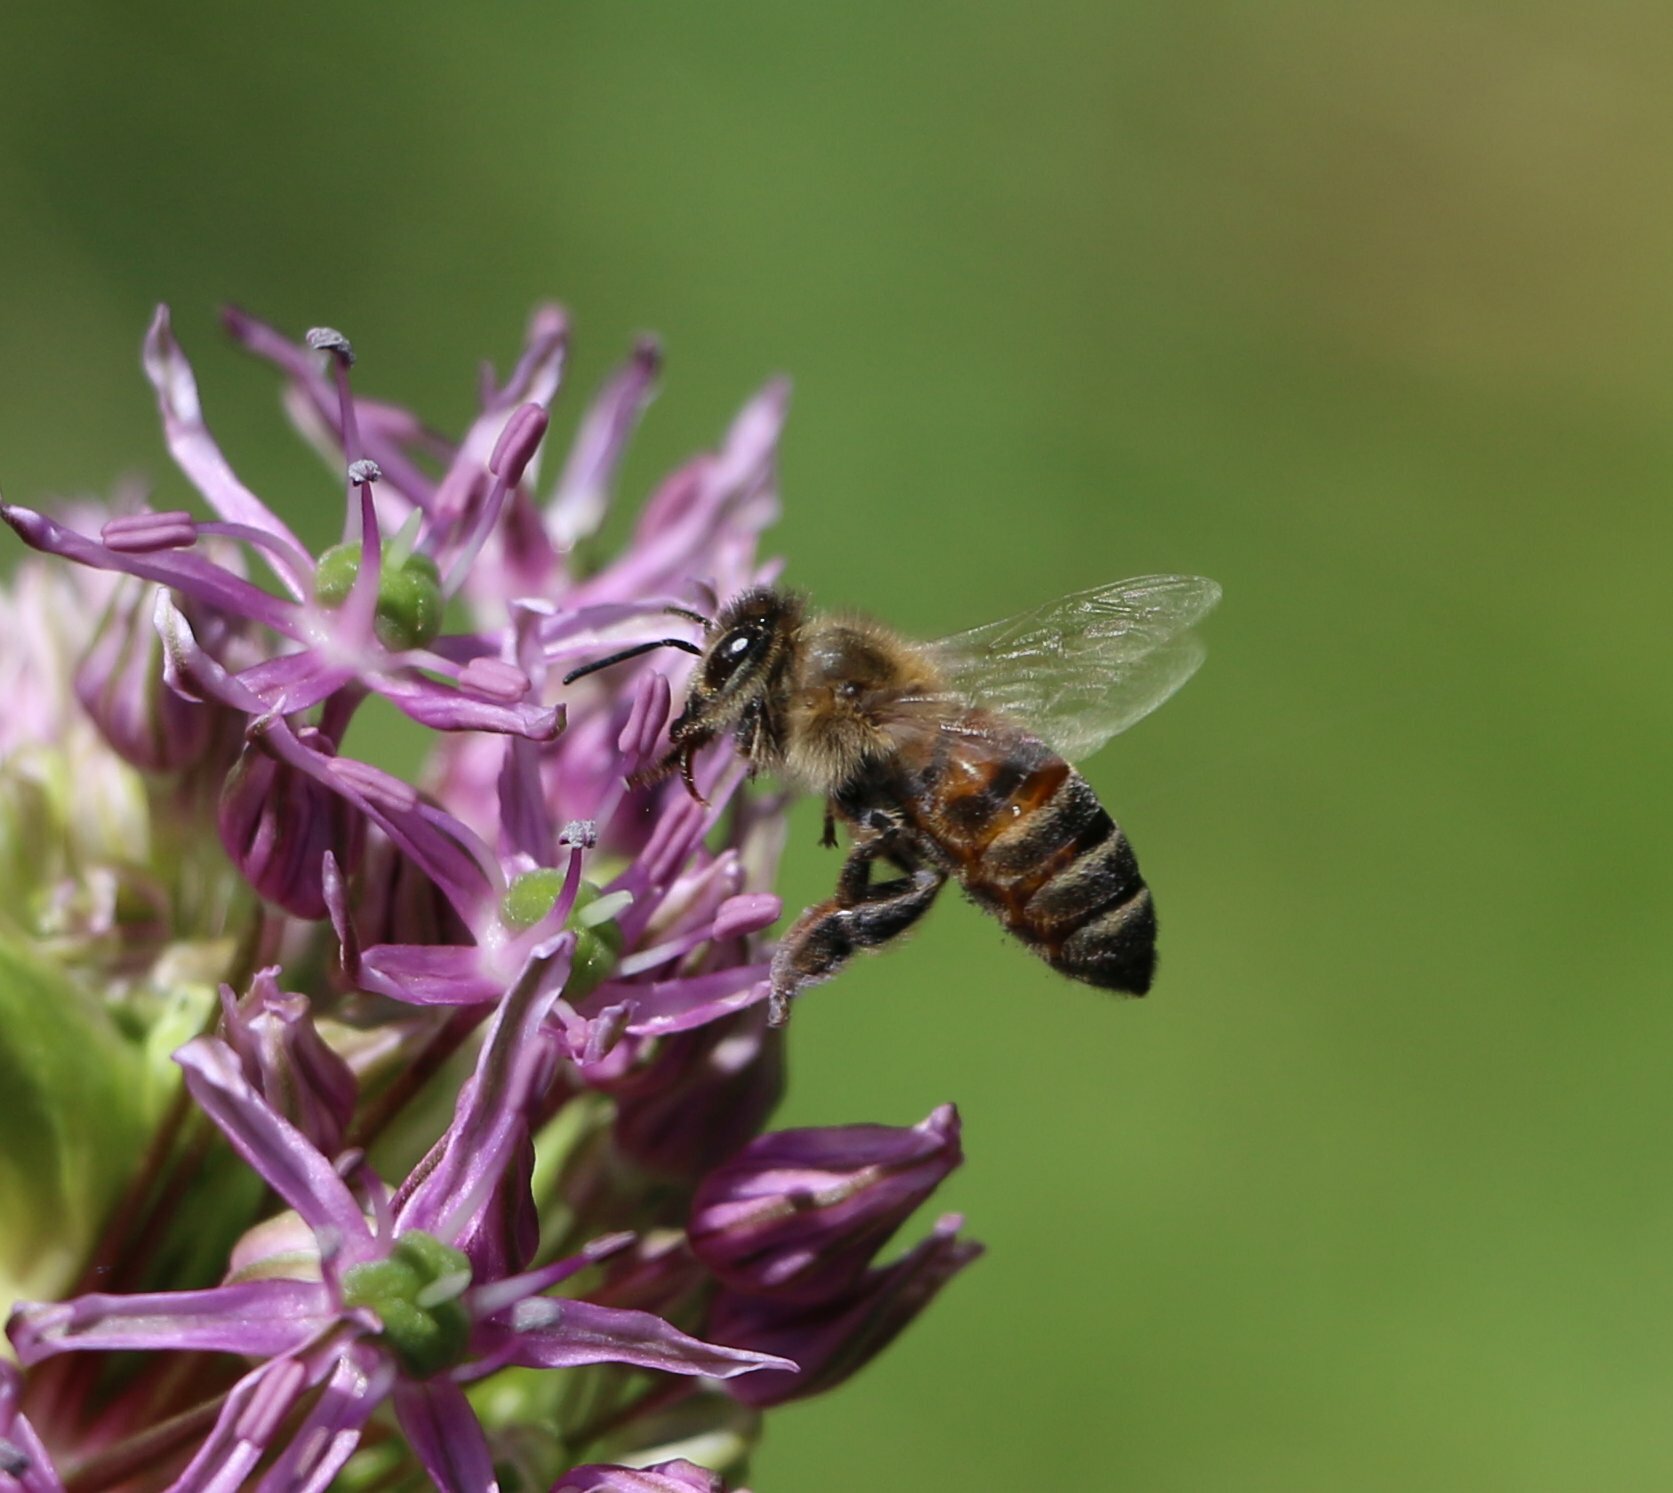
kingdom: Animalia
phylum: Arthropoda
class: Insecta
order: Hymenoptera
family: Apidae
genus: Apis
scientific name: Apis mellifera
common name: Honey bee
